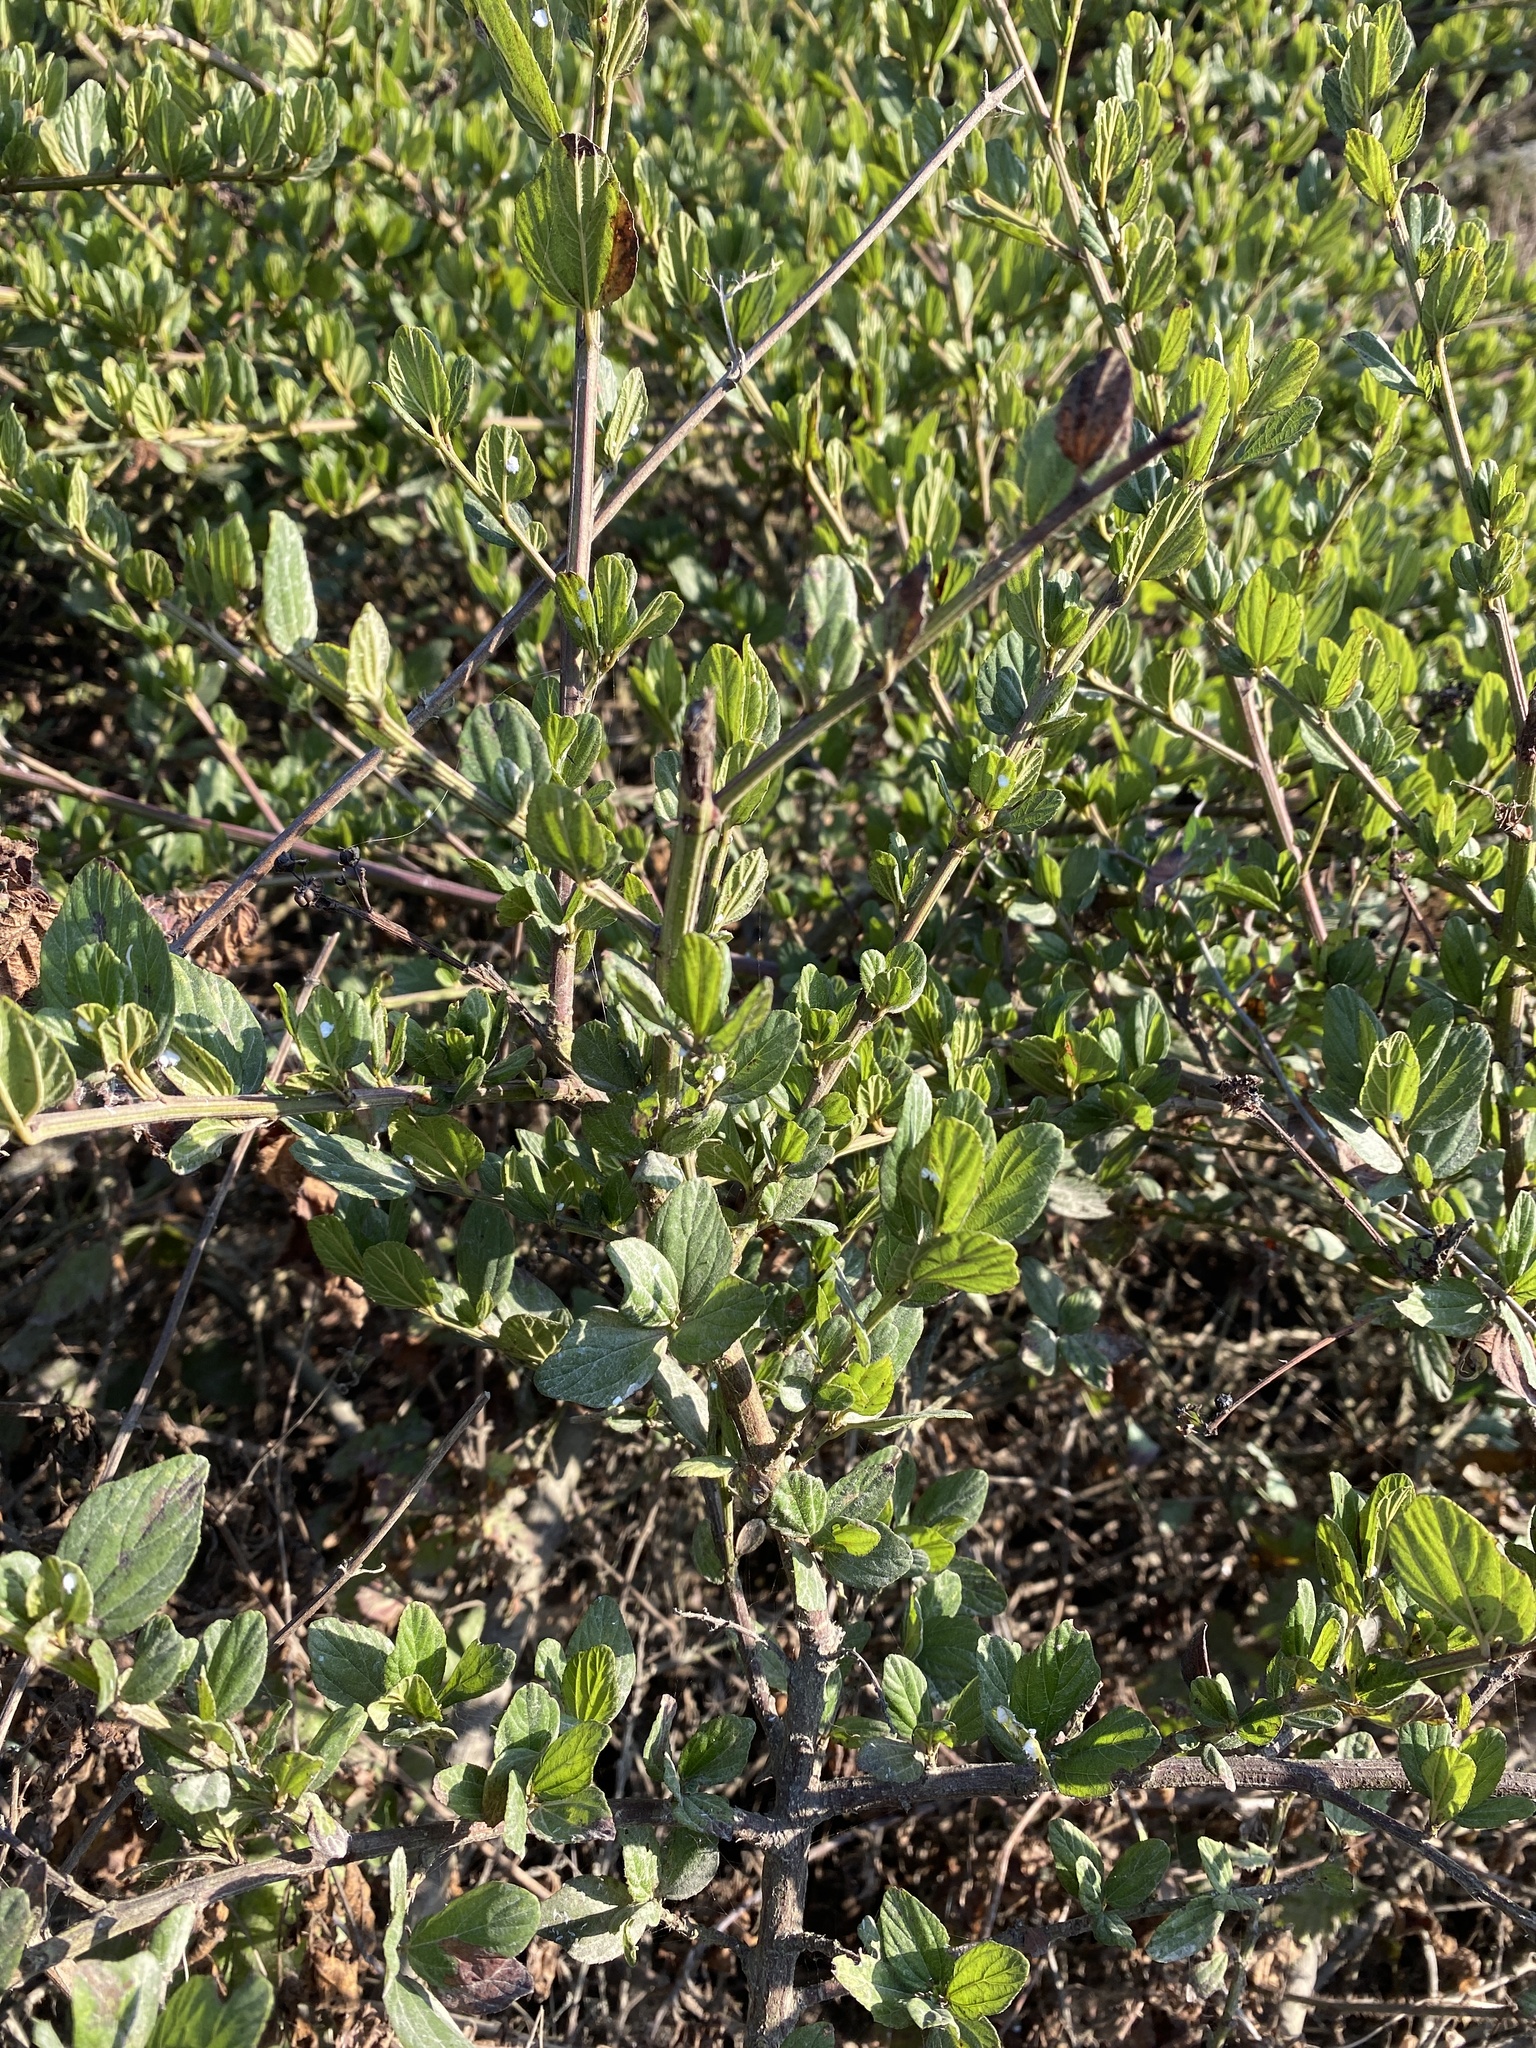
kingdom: Plantae
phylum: Tracheophyta
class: Magnoliopsida
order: Rosales
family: Rhamnaceae
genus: Ceanothus
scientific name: Ceanothus thyrsiflorus
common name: California-lilac
